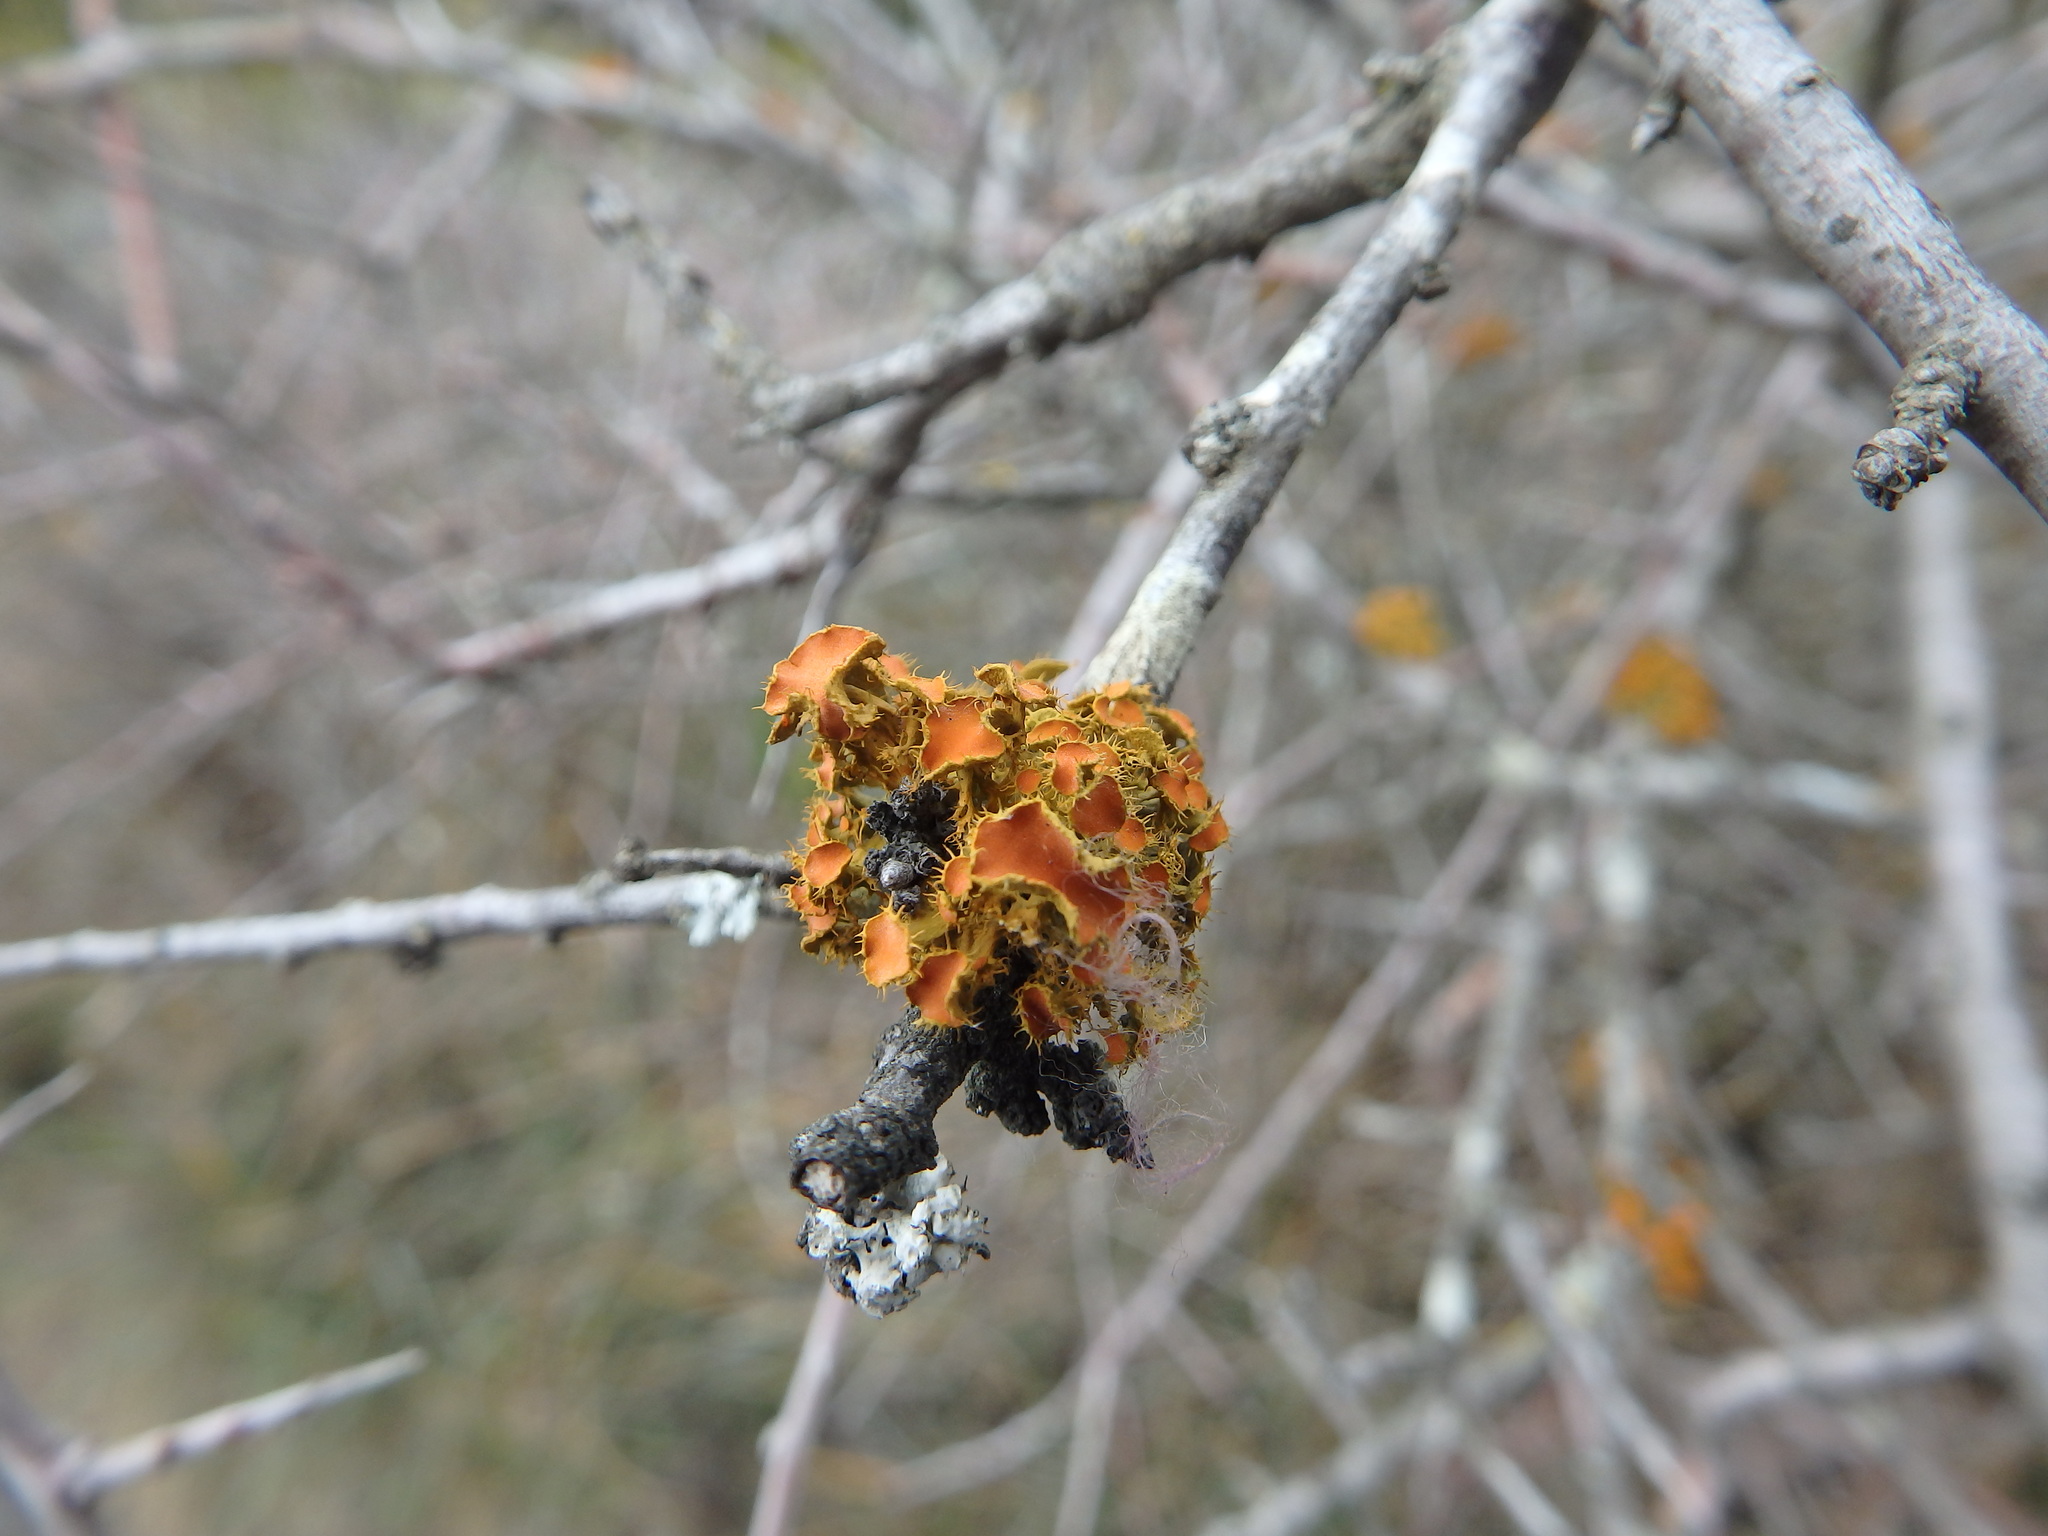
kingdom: Fungi
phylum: Ascomycota
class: Lecanoromycetes
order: Teloschistales
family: Teloschistaceae
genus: Niorma
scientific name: Niorma chrysophthalma
